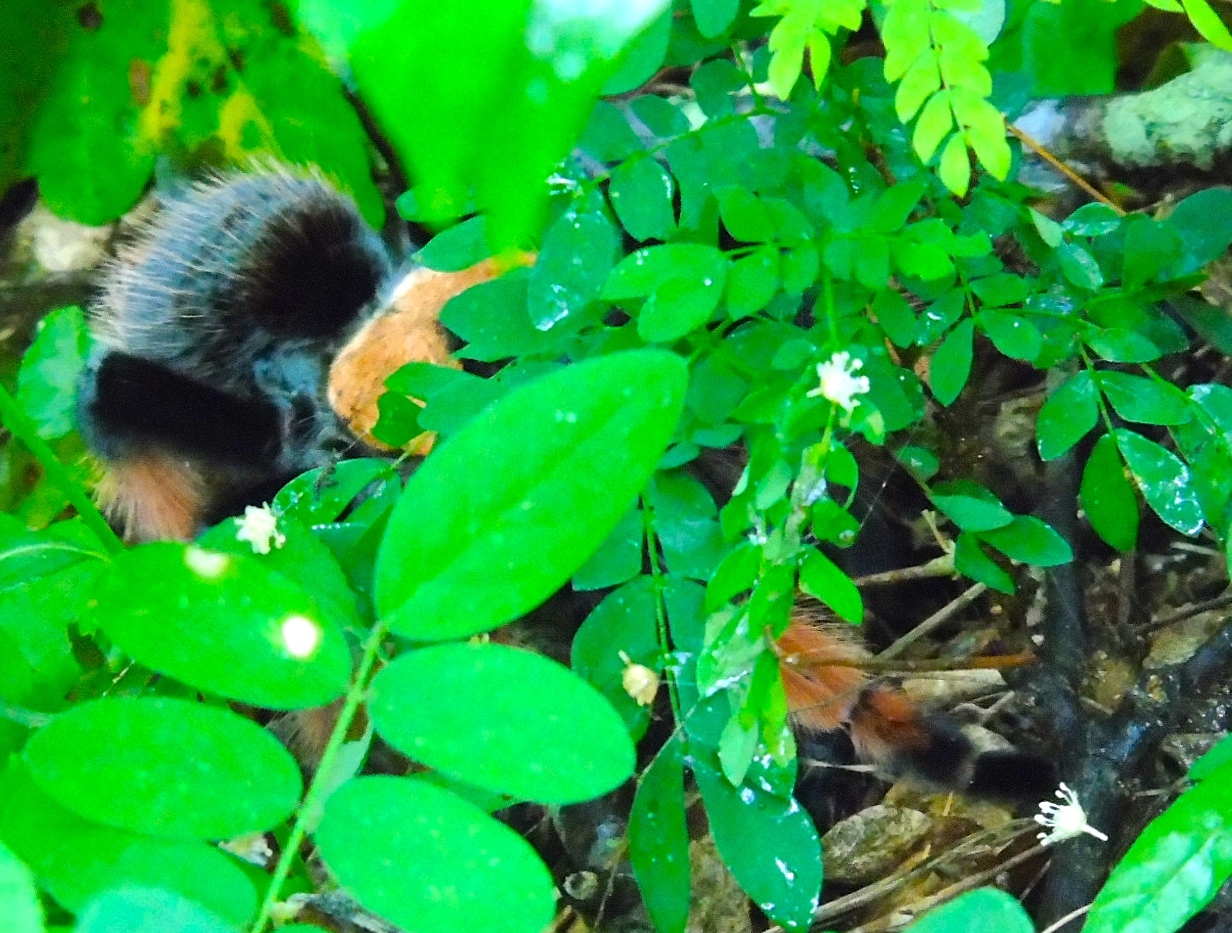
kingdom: Animalia
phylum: Arthropoda
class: Arachnida
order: Araneae
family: Theraphosidae
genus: Brachypelma
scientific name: Brachypelma emilia
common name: Mexican redleg
